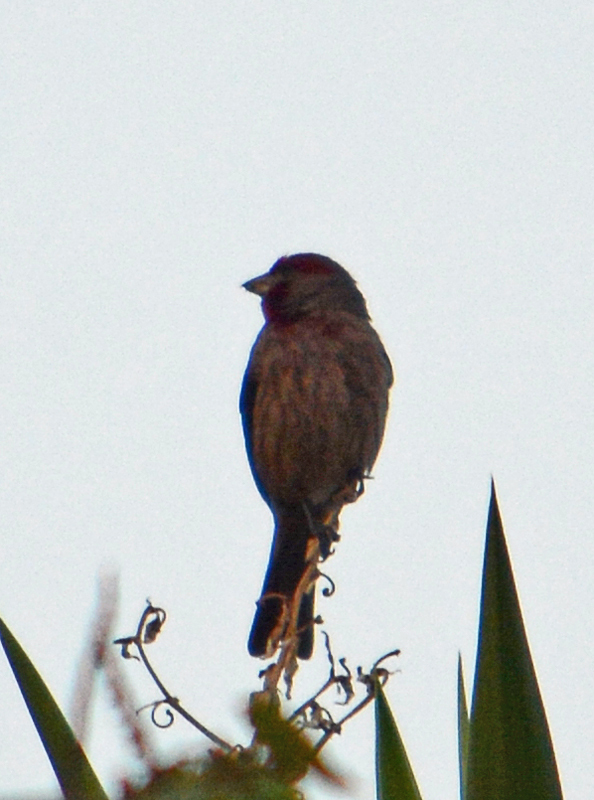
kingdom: Animalia
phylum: Chordata
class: Aves
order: Passeriformes
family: Fringillidae
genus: Haemorhous
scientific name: Haemorhous mexicanus
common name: House finch
